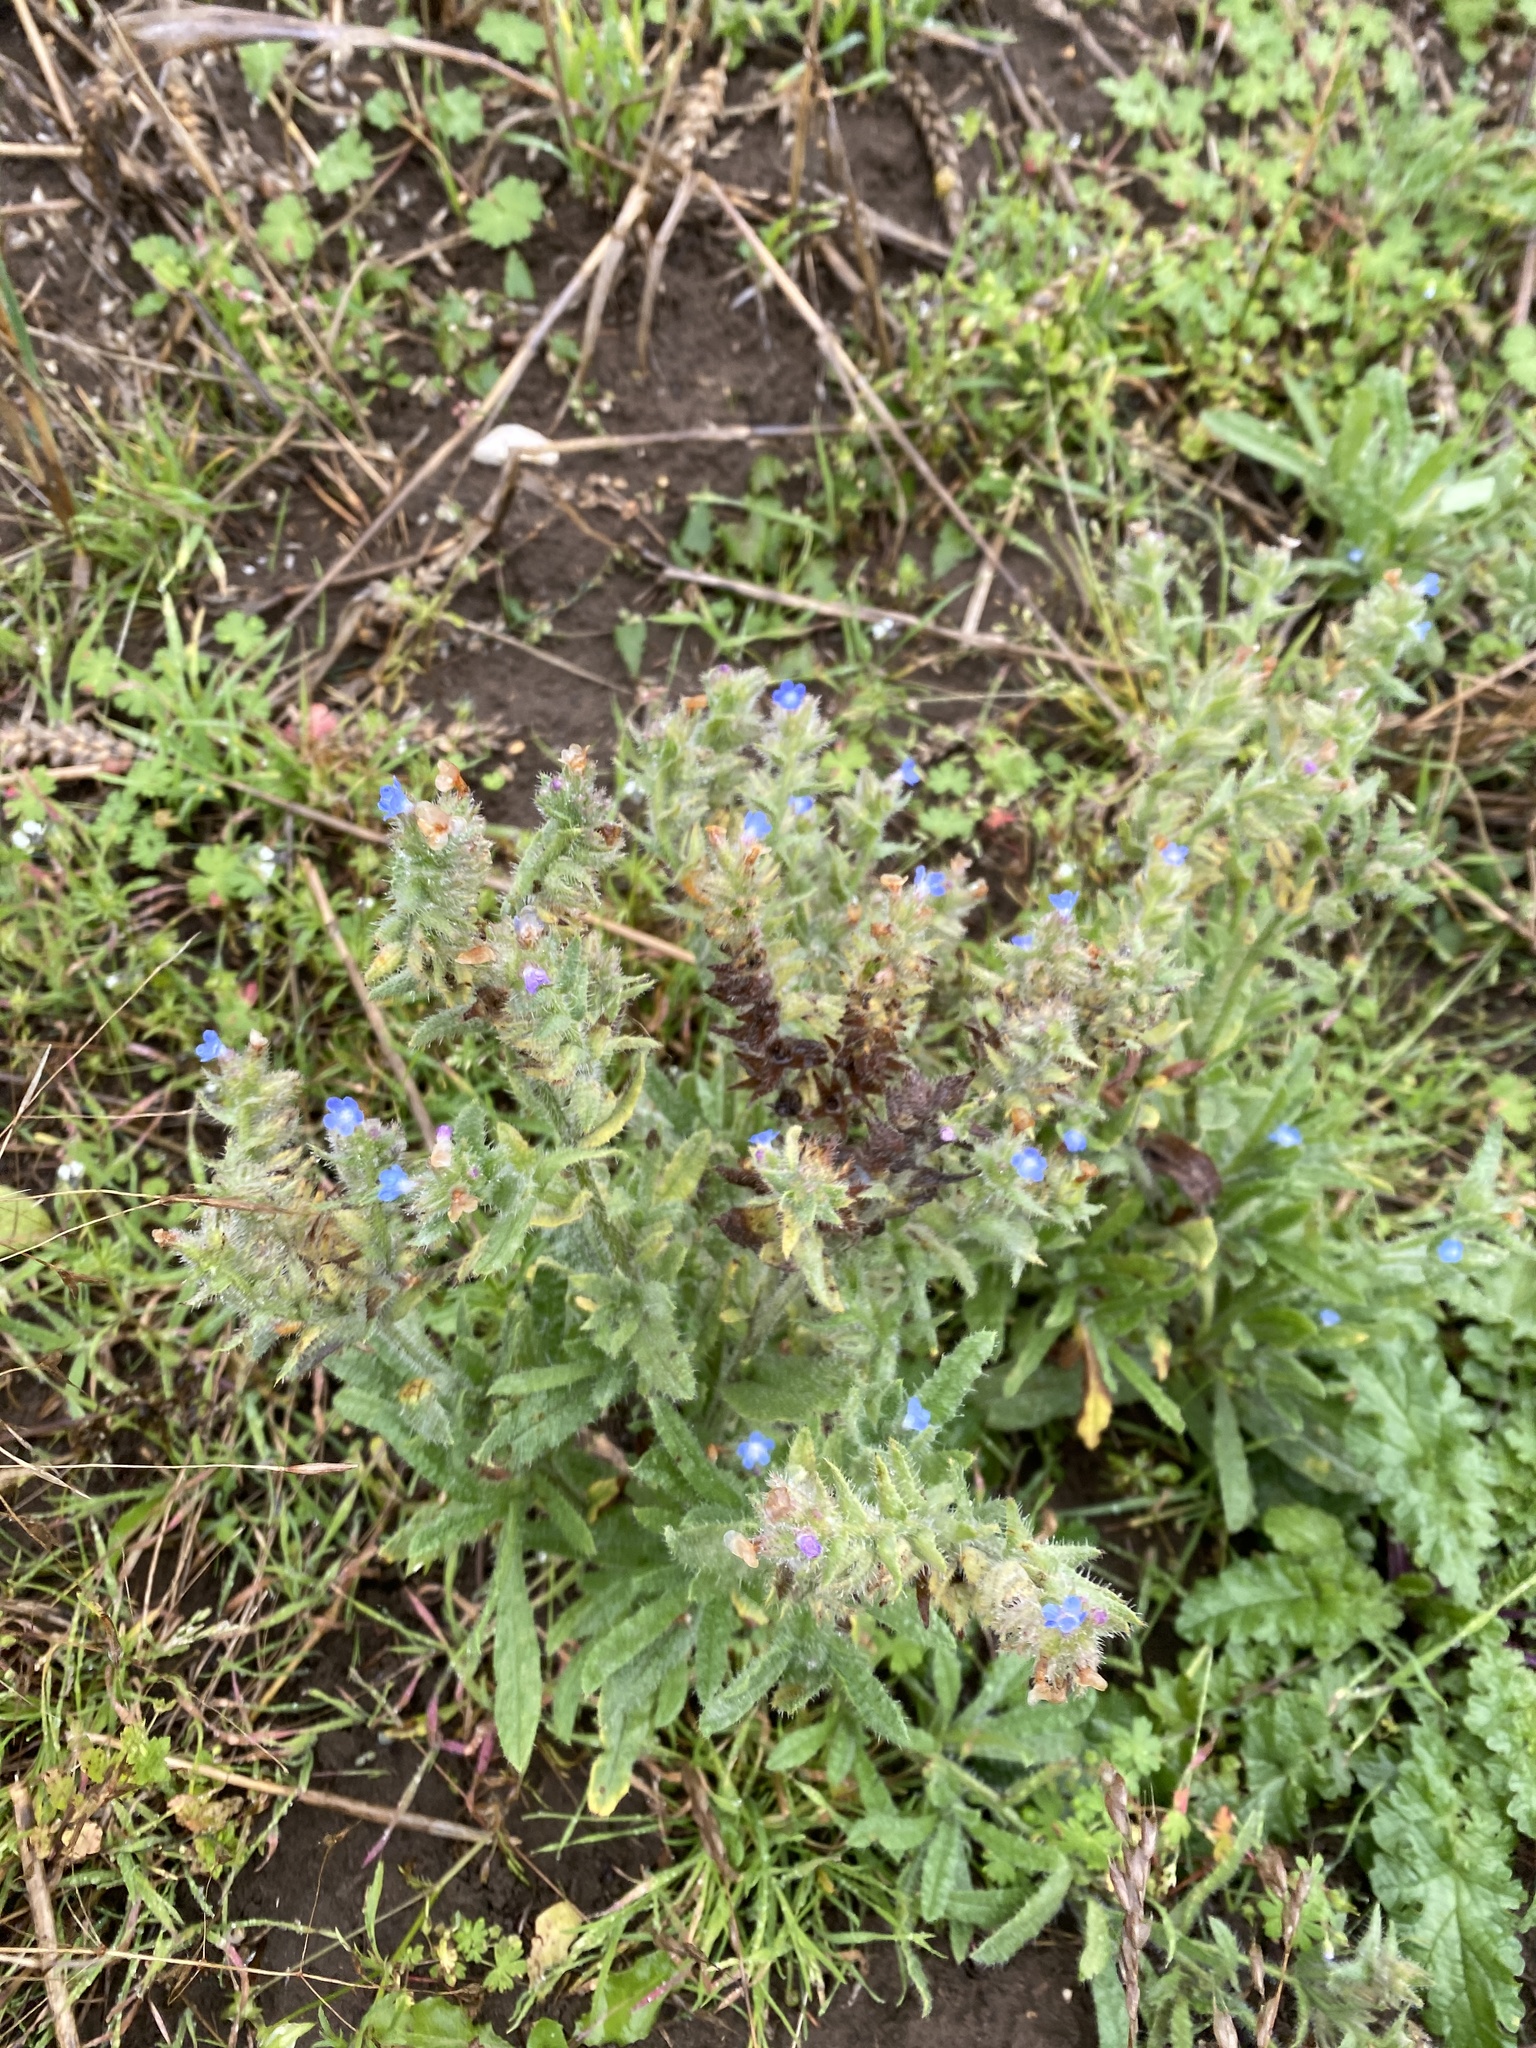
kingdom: Plantae
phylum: Tracheophyta
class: Magnoliopsida
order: Boraginales
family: Boraginaceae
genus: Lycopsis
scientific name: Lycopsis arvensis
